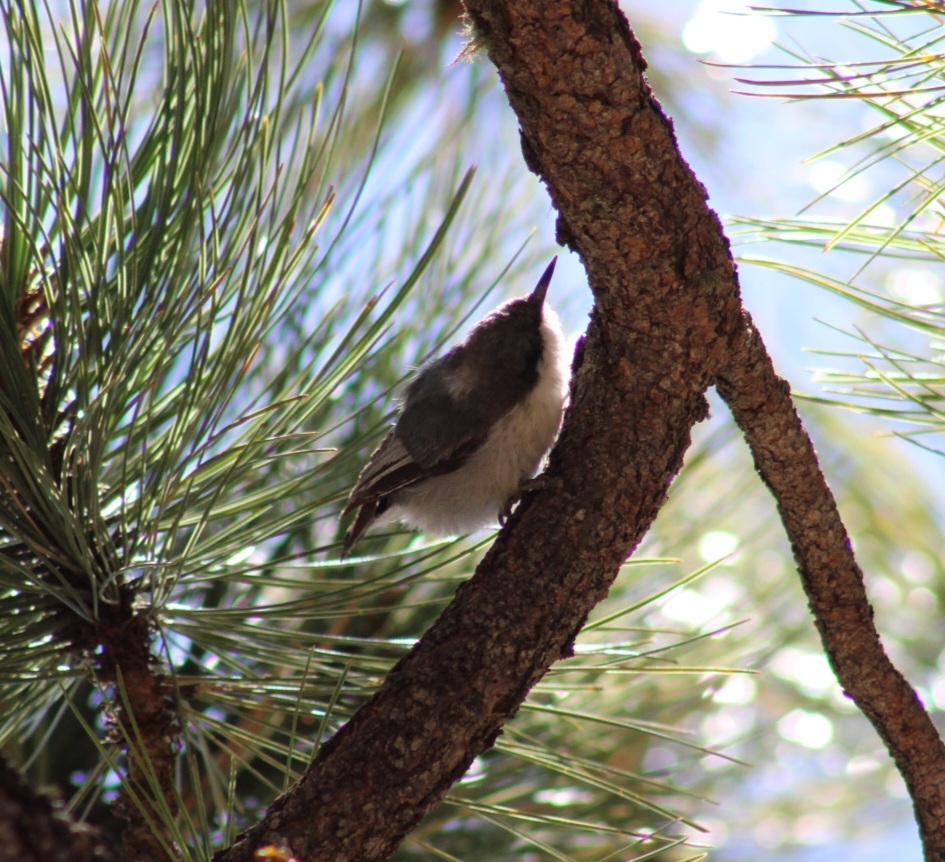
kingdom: Animalia
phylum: Chordata
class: Aves
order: Passeriformes
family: Sittidae
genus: Sitta
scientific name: Sitta pygmaea
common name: Pygmy nuthatch
